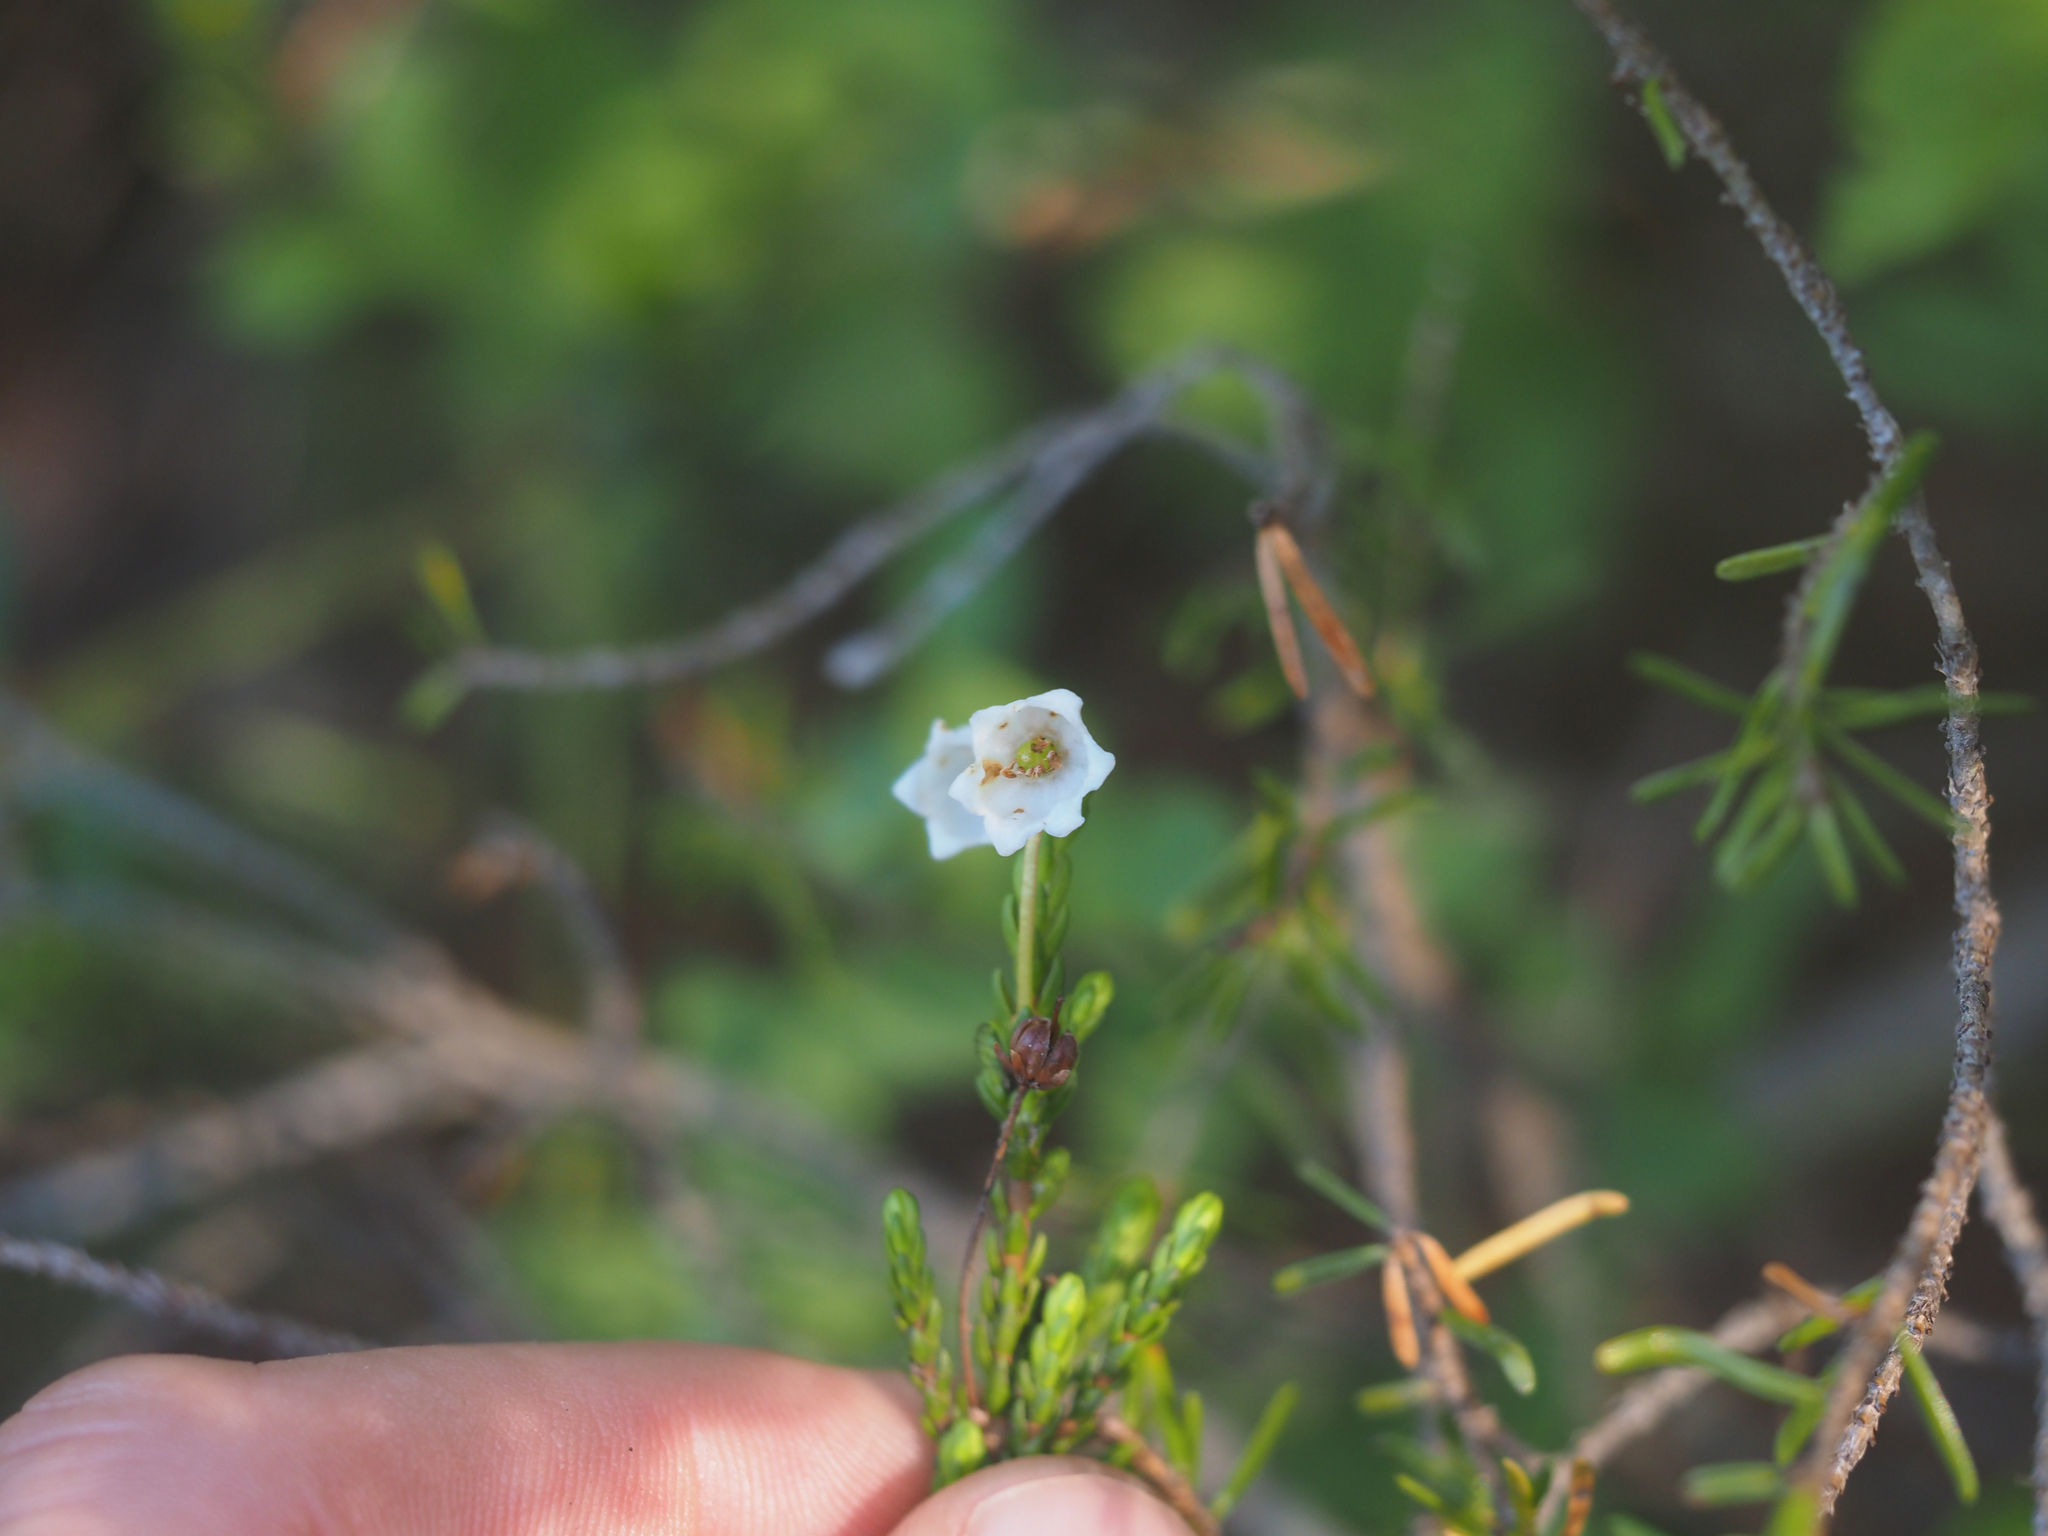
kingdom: Plantae
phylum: Tracheophyta
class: Magnoliopsida
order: Ericales
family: Ericaceae
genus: Cassiope
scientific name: Cassiope mertensiana
